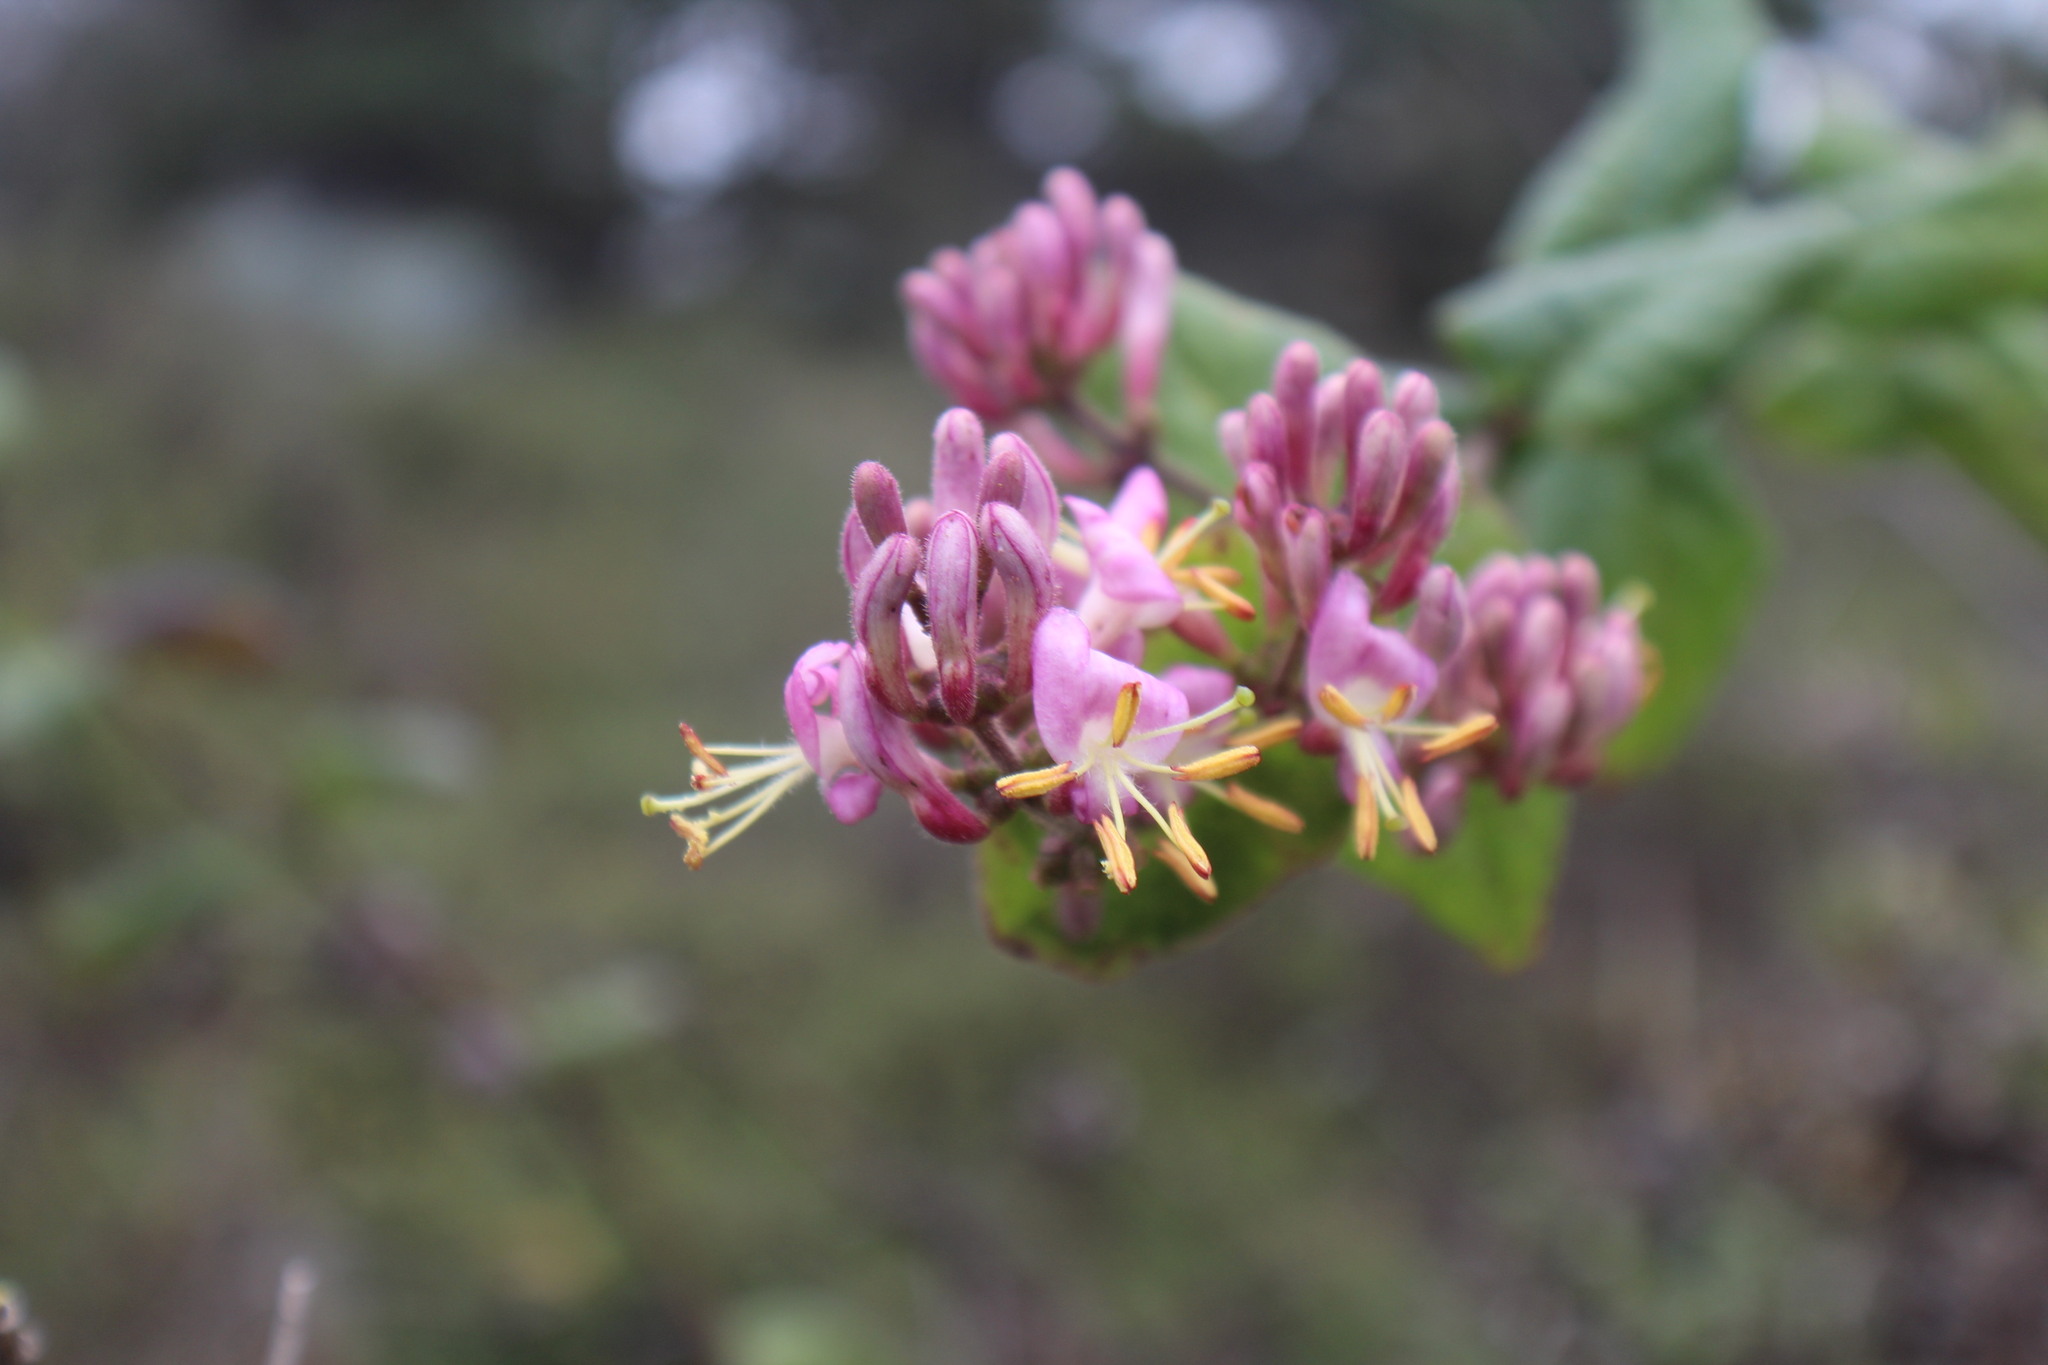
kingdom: Plantae
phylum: Tracheophyta
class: Magnoliopsida
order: Dipsacales
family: Caprifoliaceae
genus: Lonicera
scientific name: Lonicera hispidula
